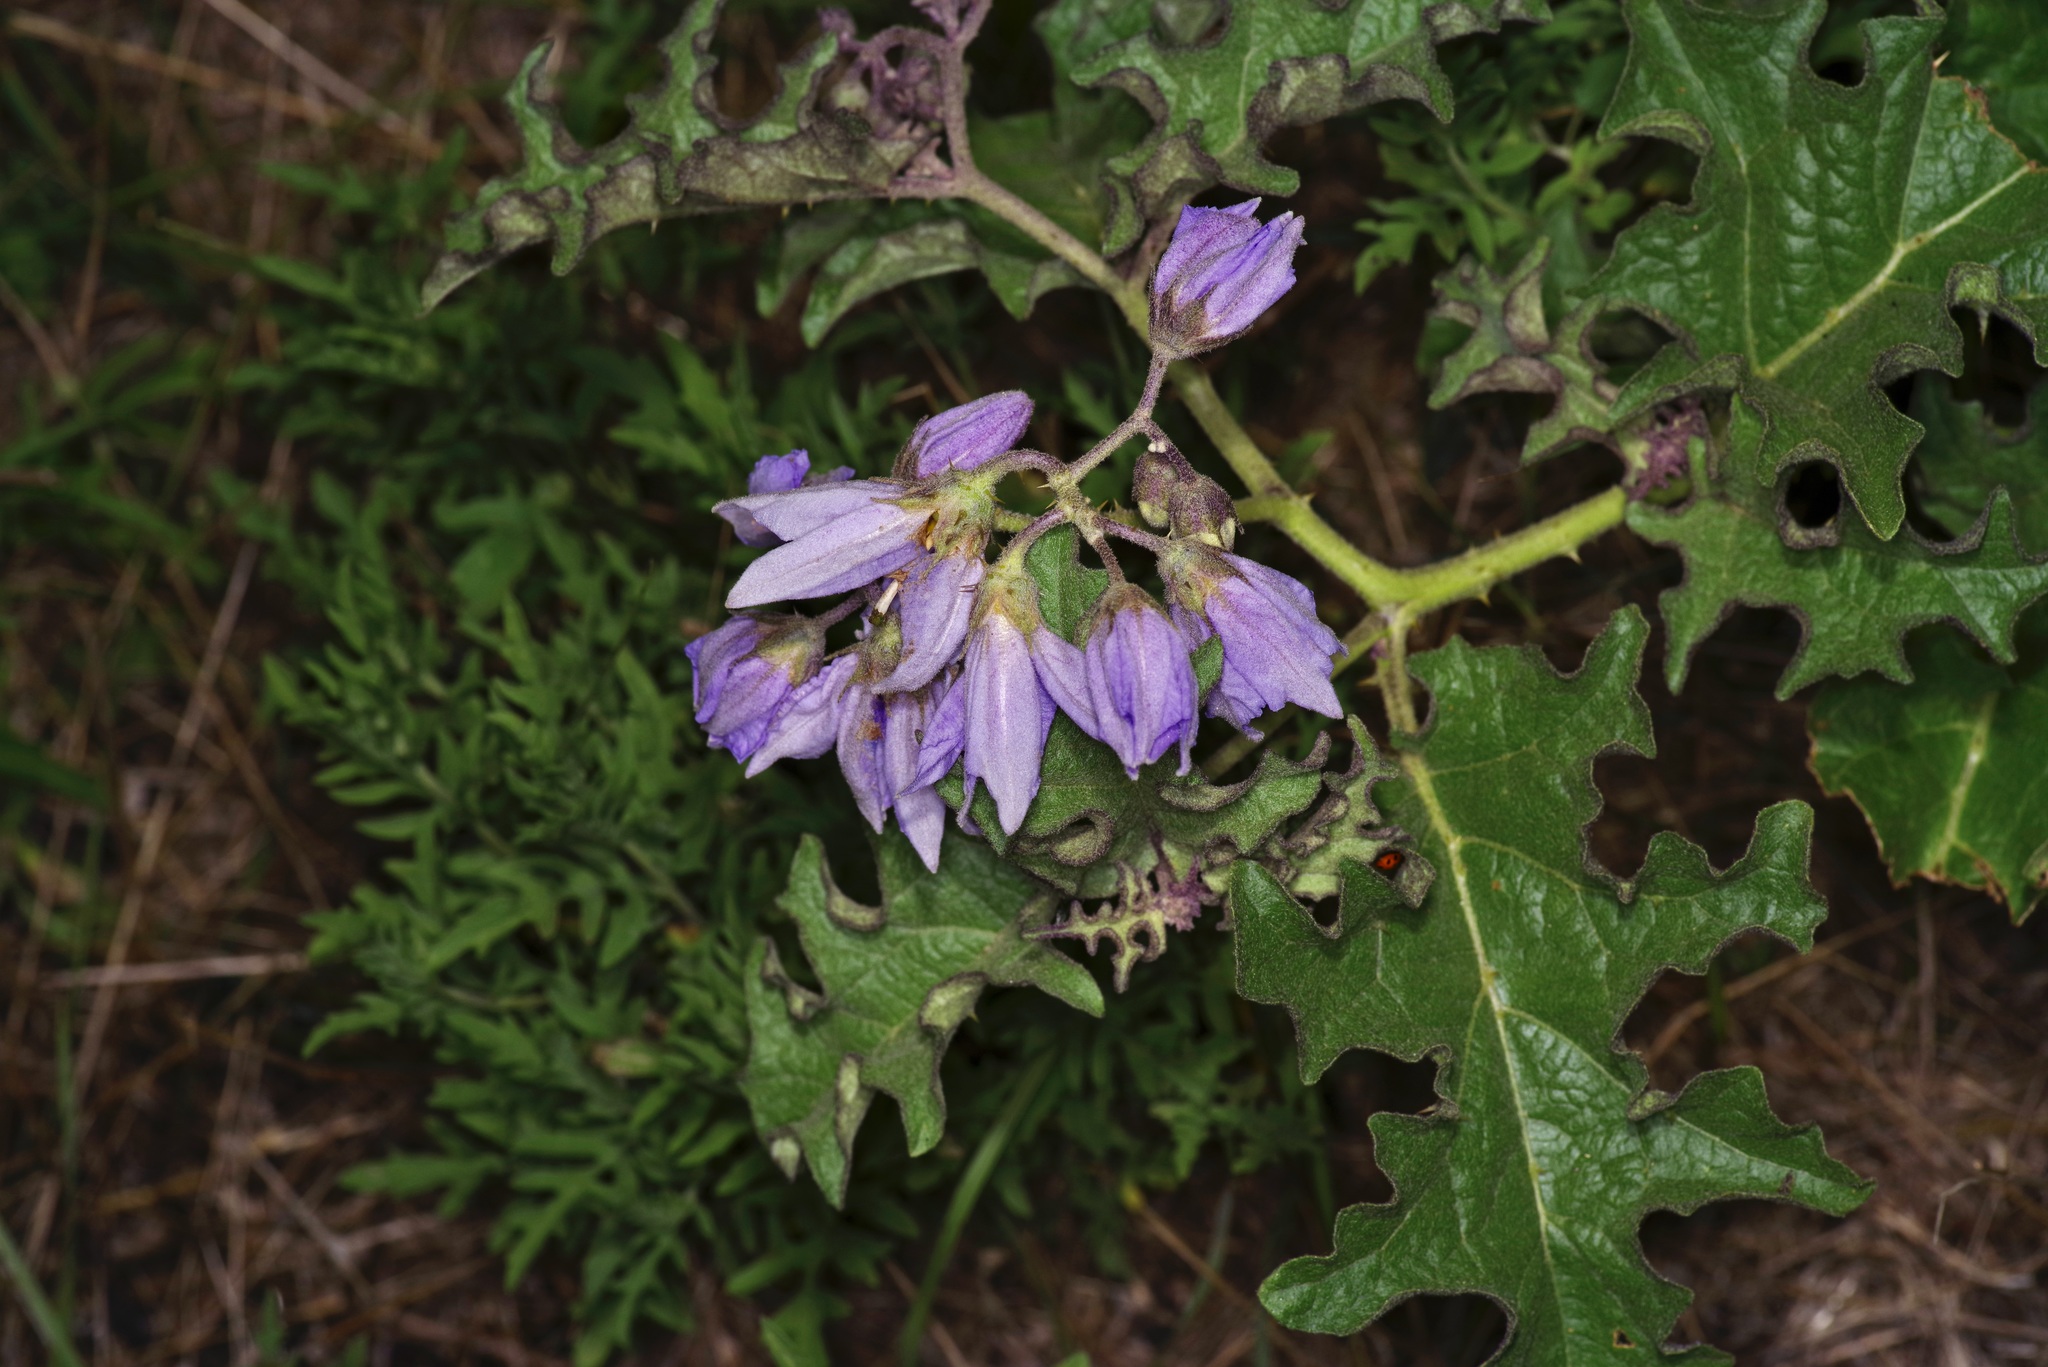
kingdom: Plantae
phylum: Tracheophyta
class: Magnoliopsida
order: Solanales
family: Solanaceae
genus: Solanum
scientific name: Solanum dimidiatum
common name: Carolina horse-nettle
